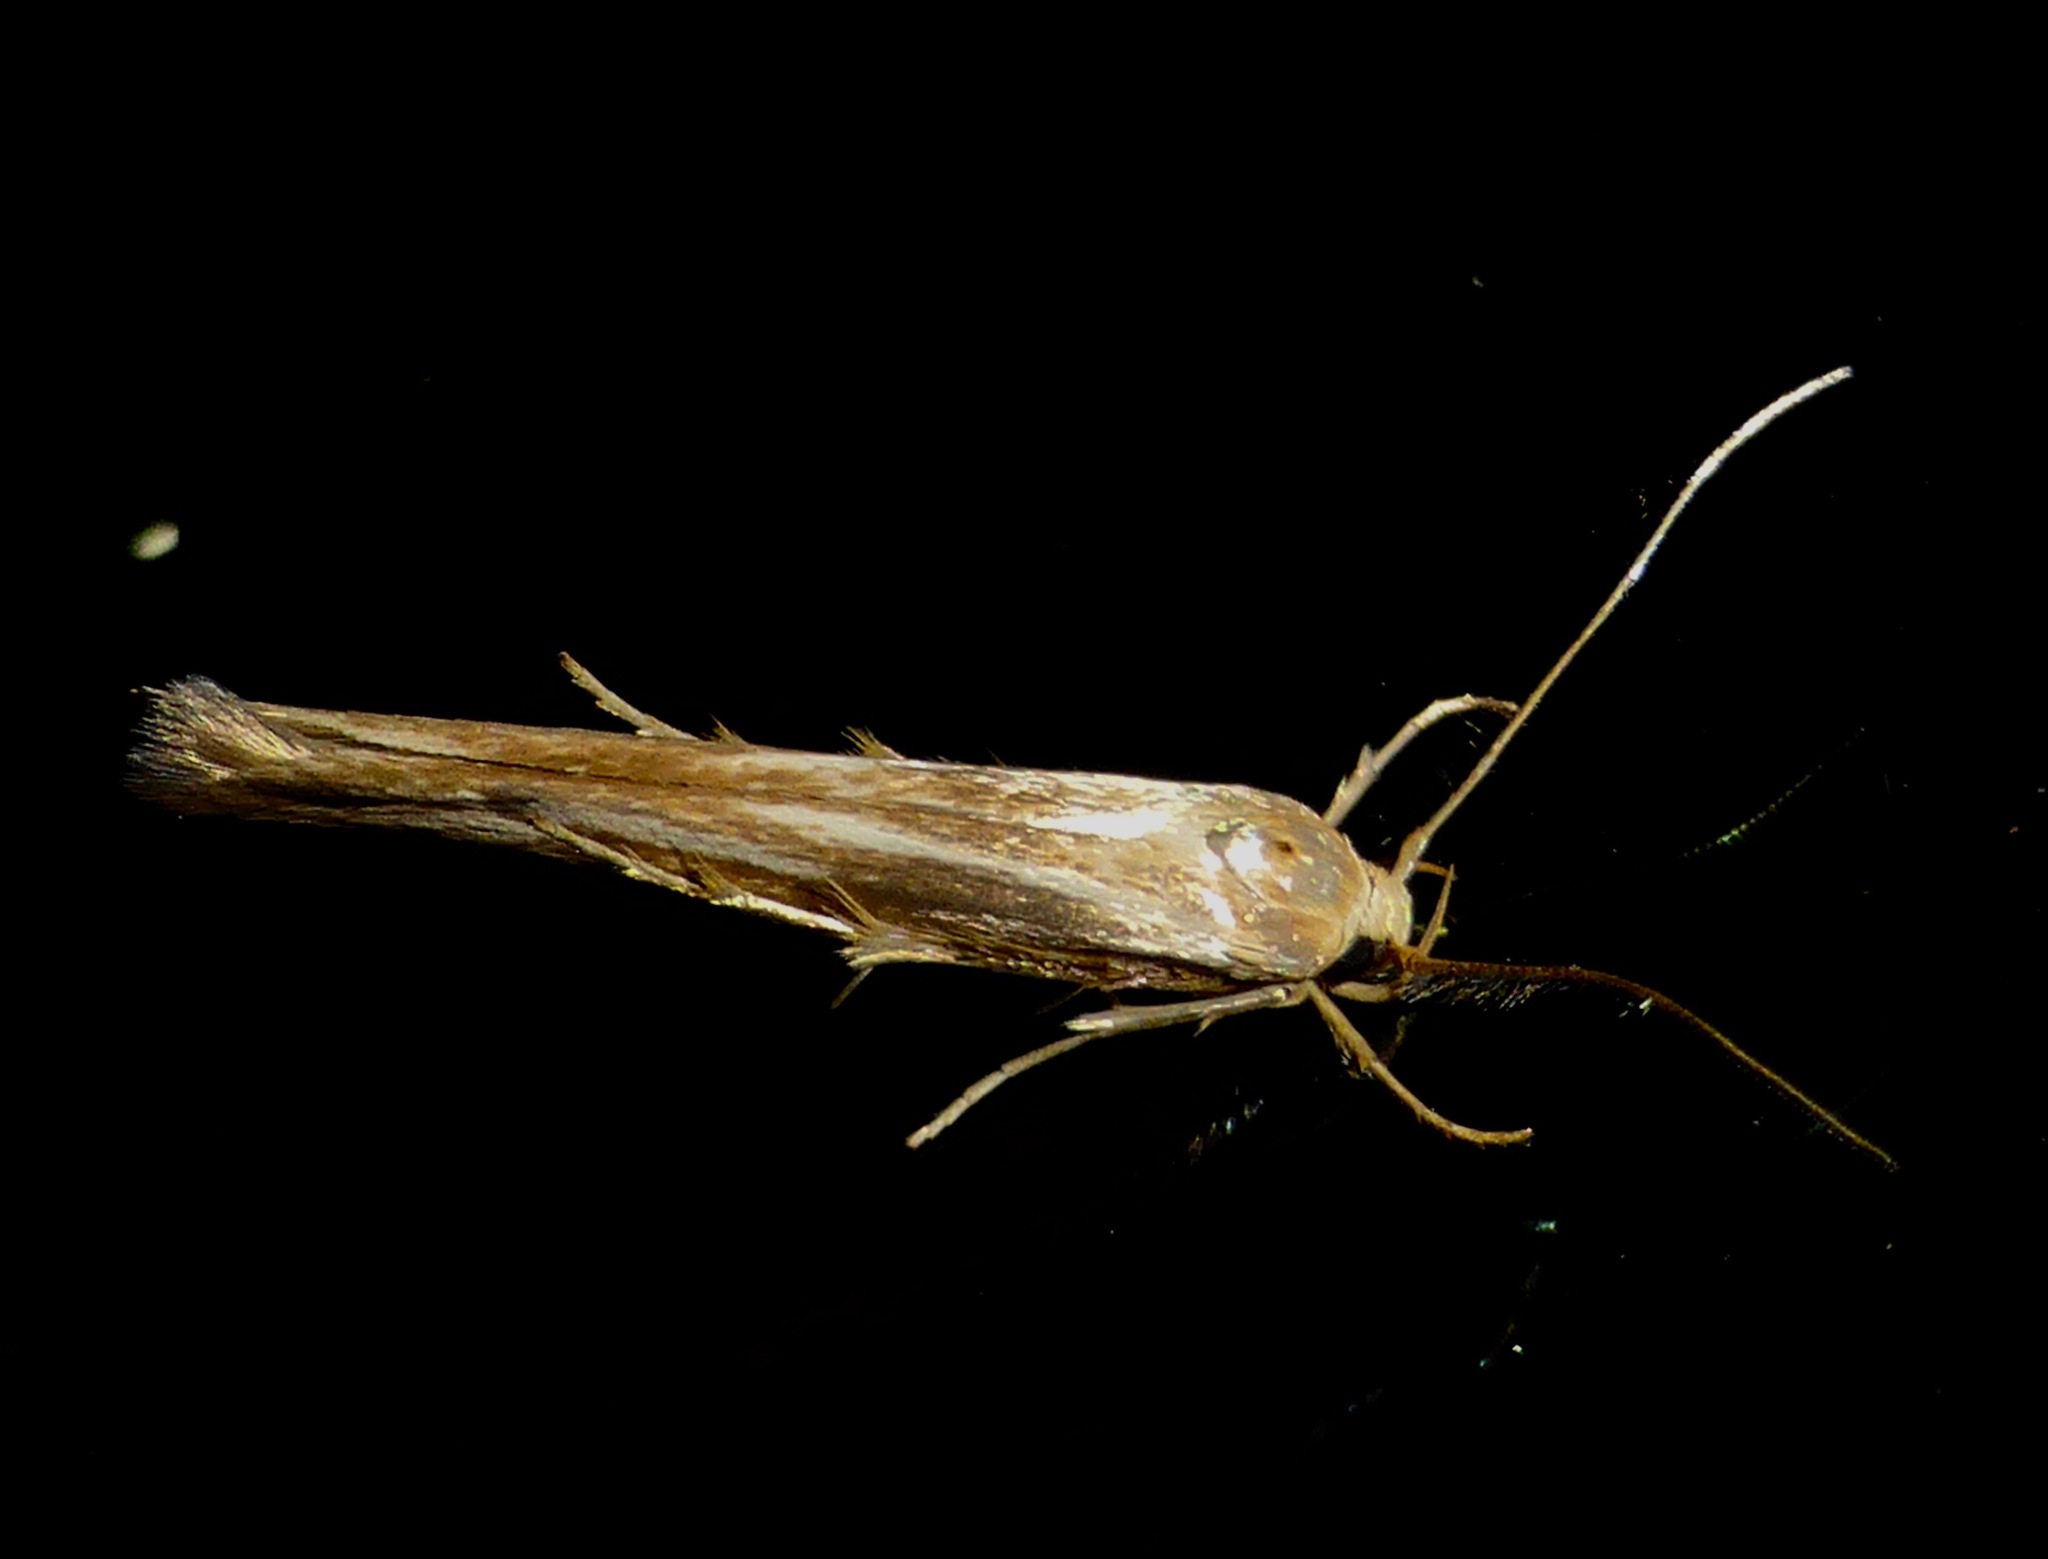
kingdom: Animalia
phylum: Arthropoda
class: Insecta
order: Lepidoptera
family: Stathmopodidae
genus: Stathmopoda
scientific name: Stathmopoda aposema
